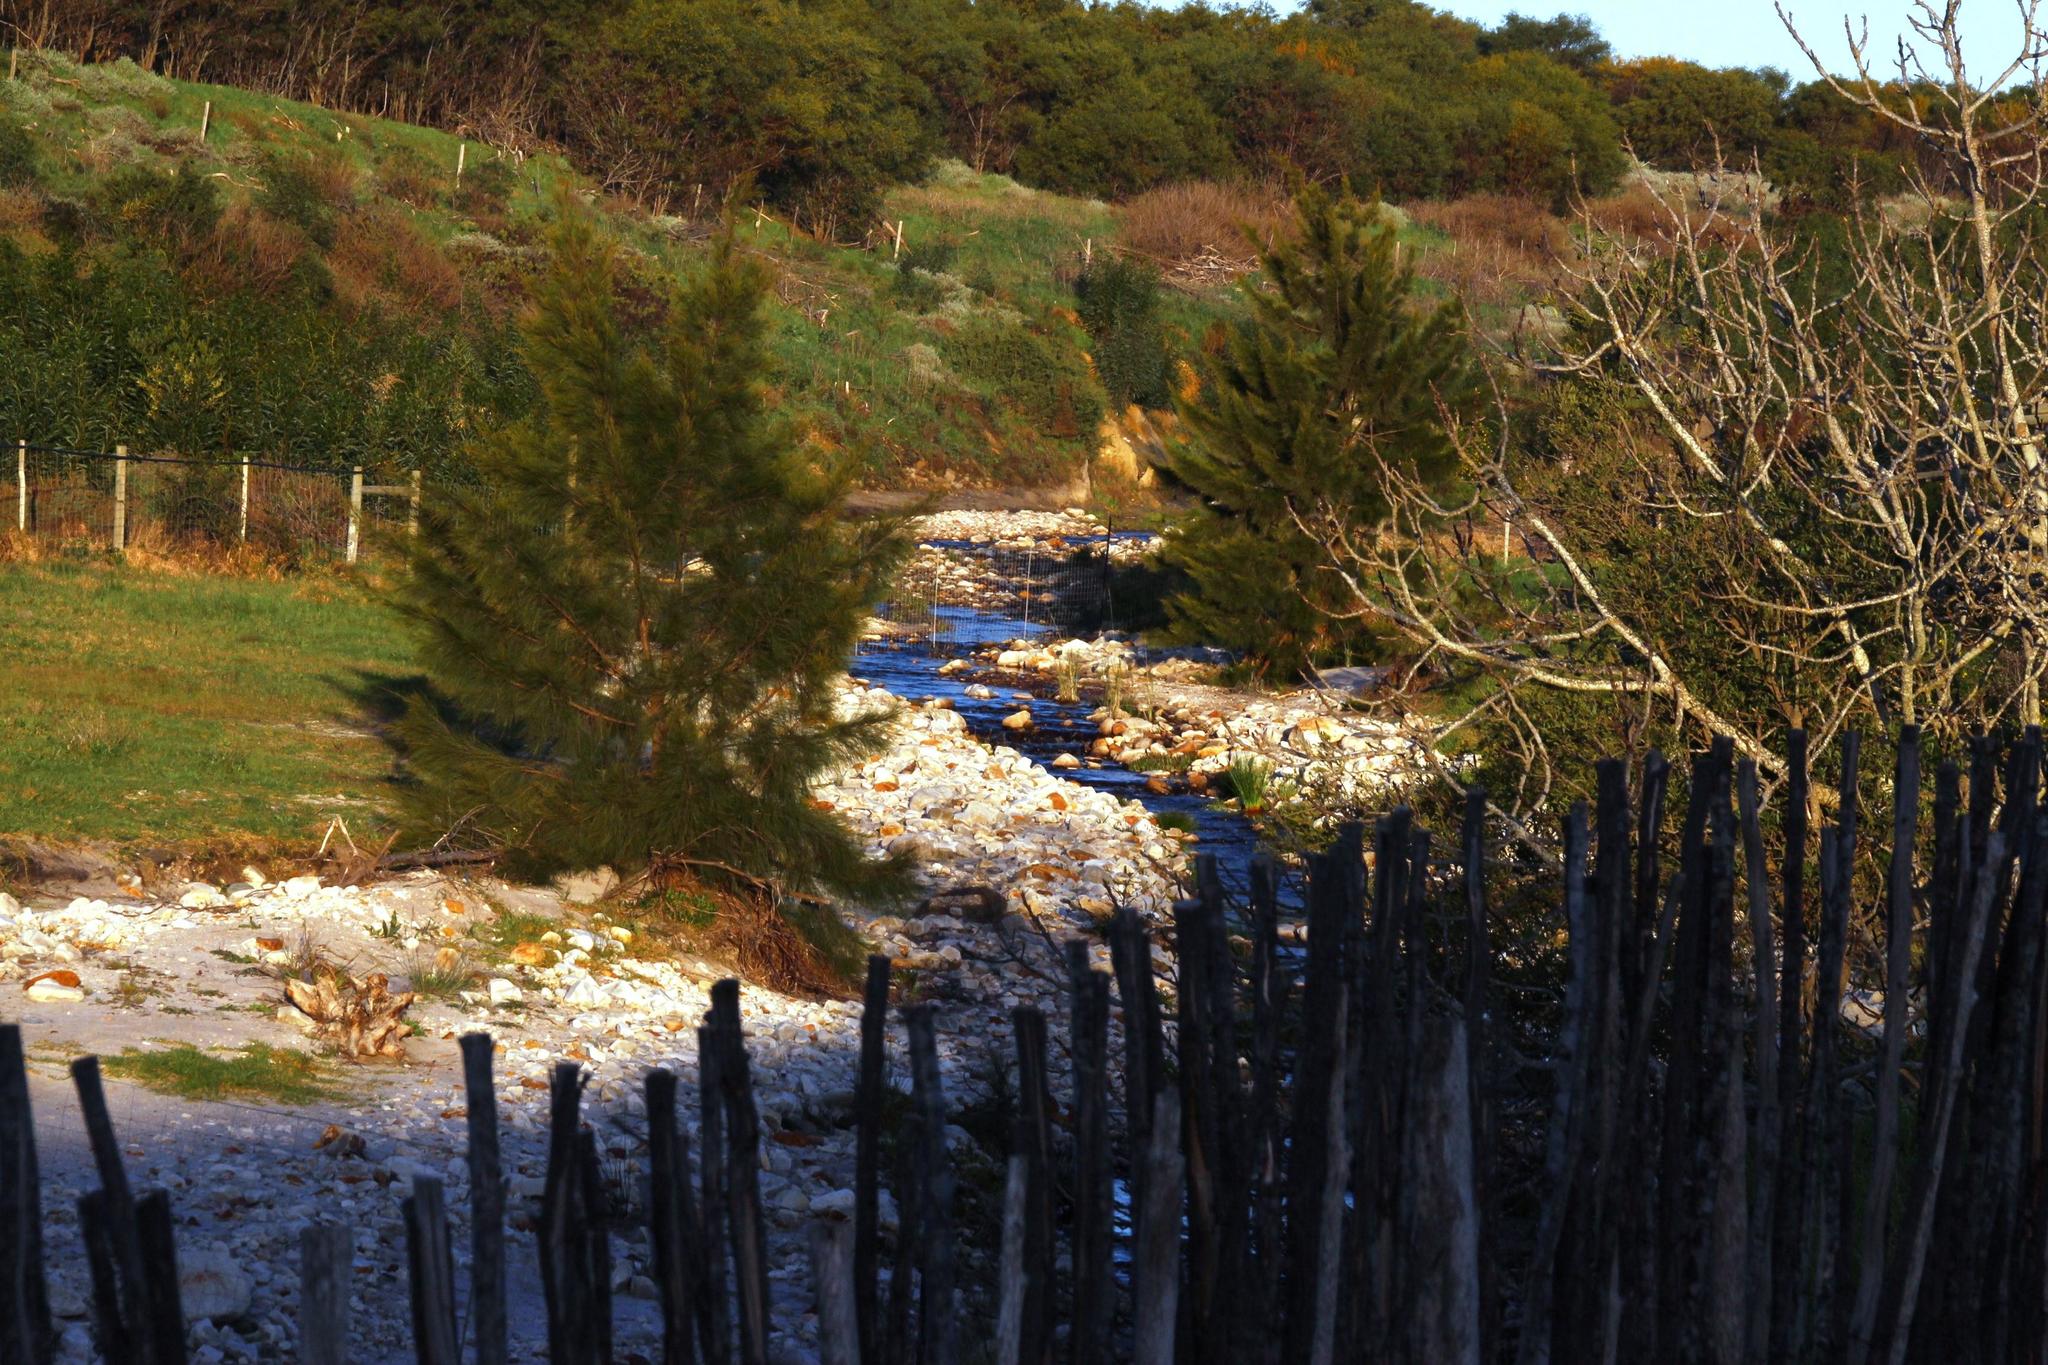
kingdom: Plantae
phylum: Tracheophyta
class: Magnoliopsida
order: Fagales
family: Casuarinaceae
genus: Casuarina
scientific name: Casuarina cunninghamiana
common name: River sheoak
